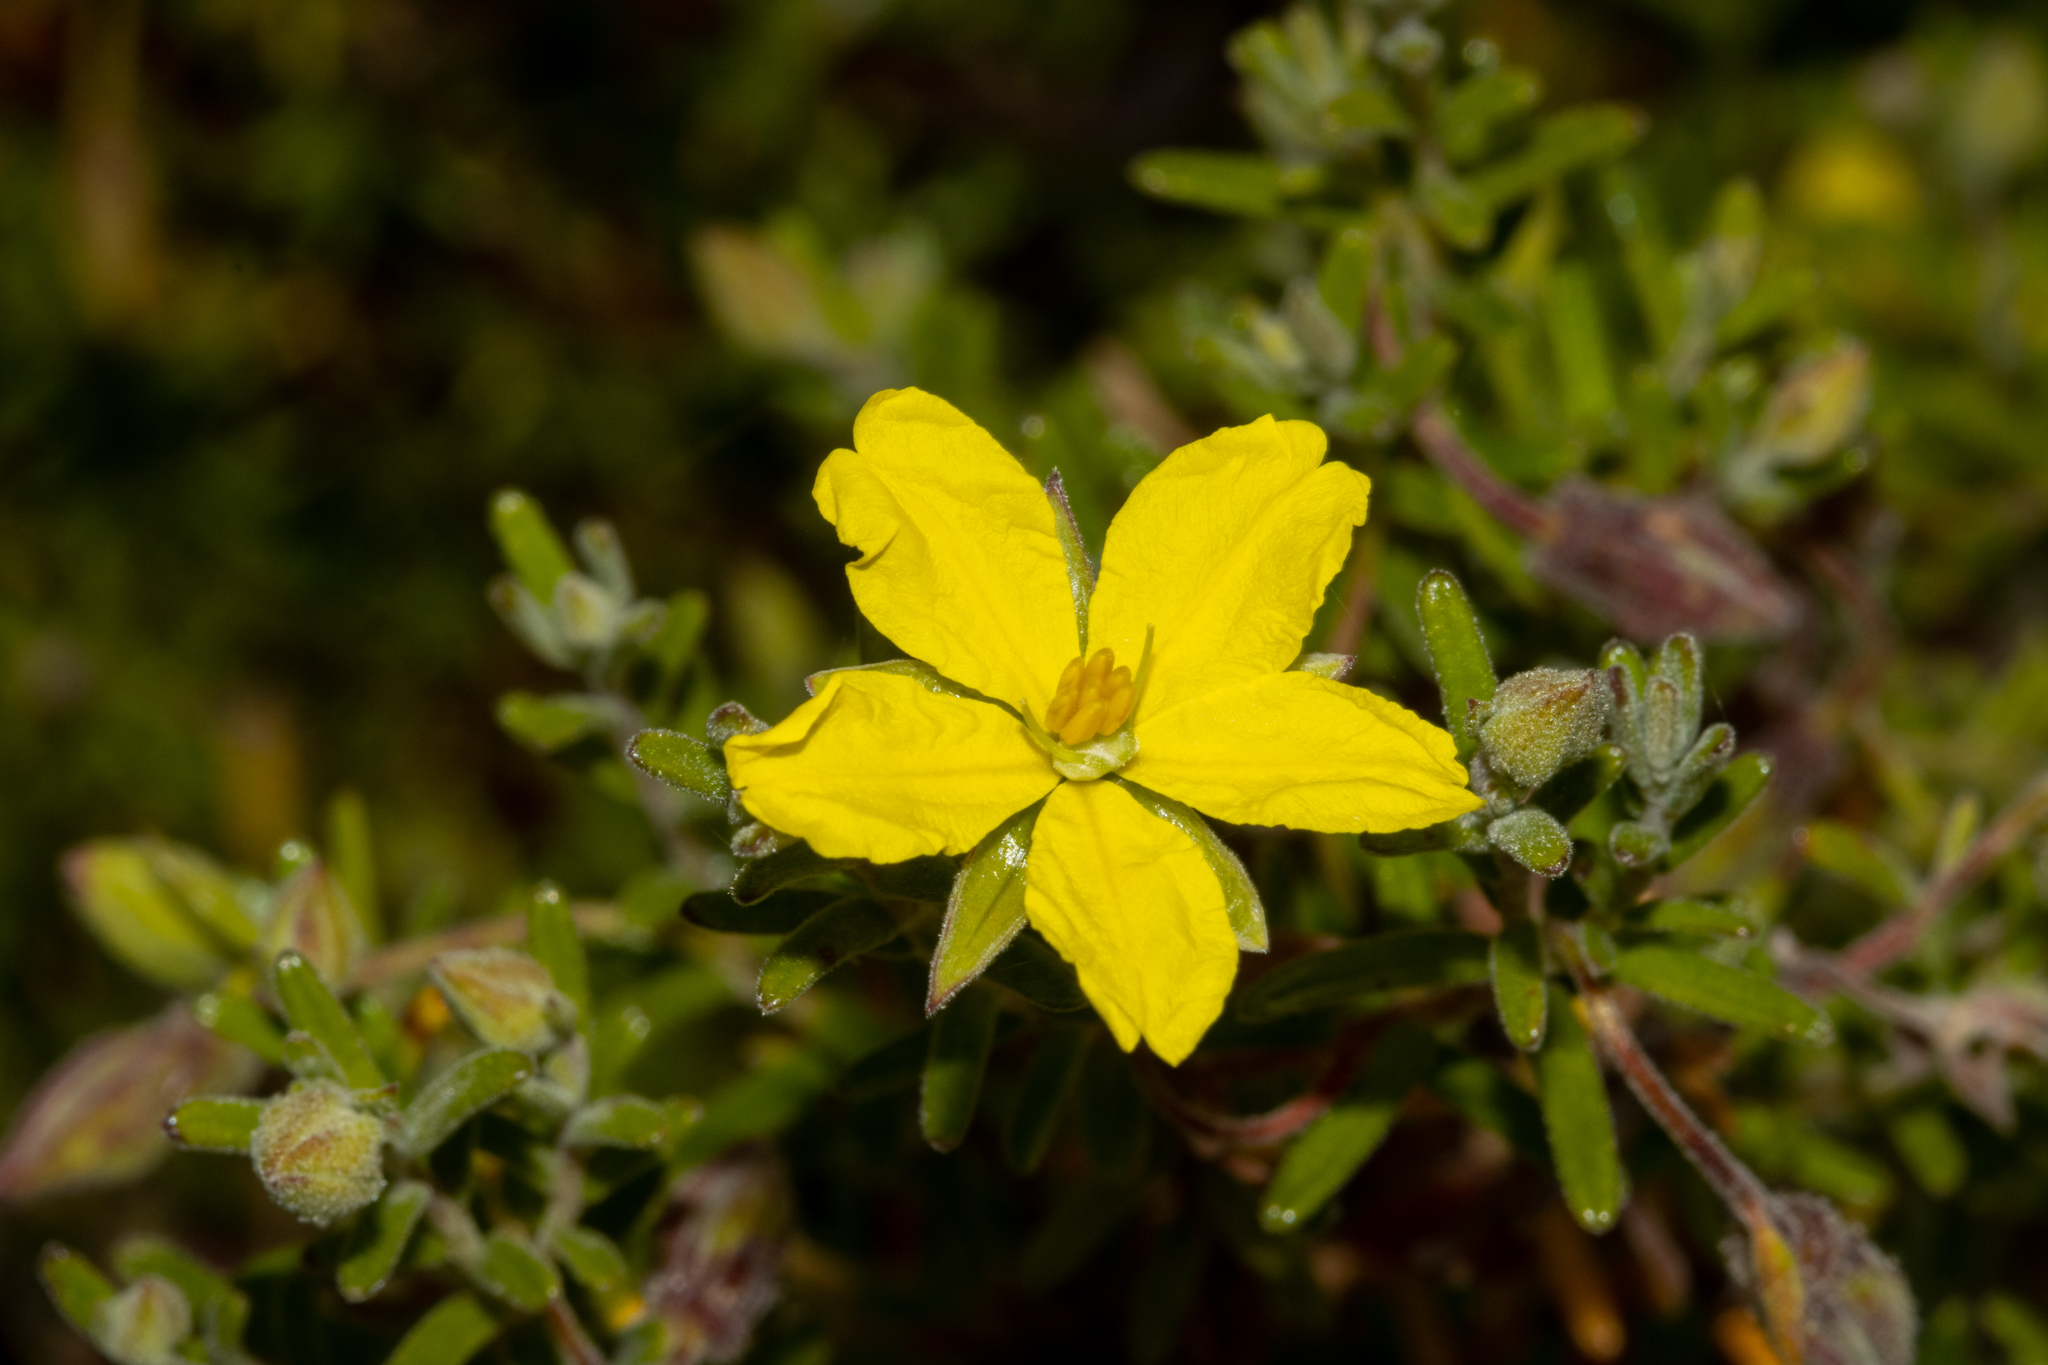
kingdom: Plantae
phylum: Tracheophyta
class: Magnoliopsida
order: Dilleniales
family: Dilleniaceae
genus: Hibbertia
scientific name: Hibbertia australis
